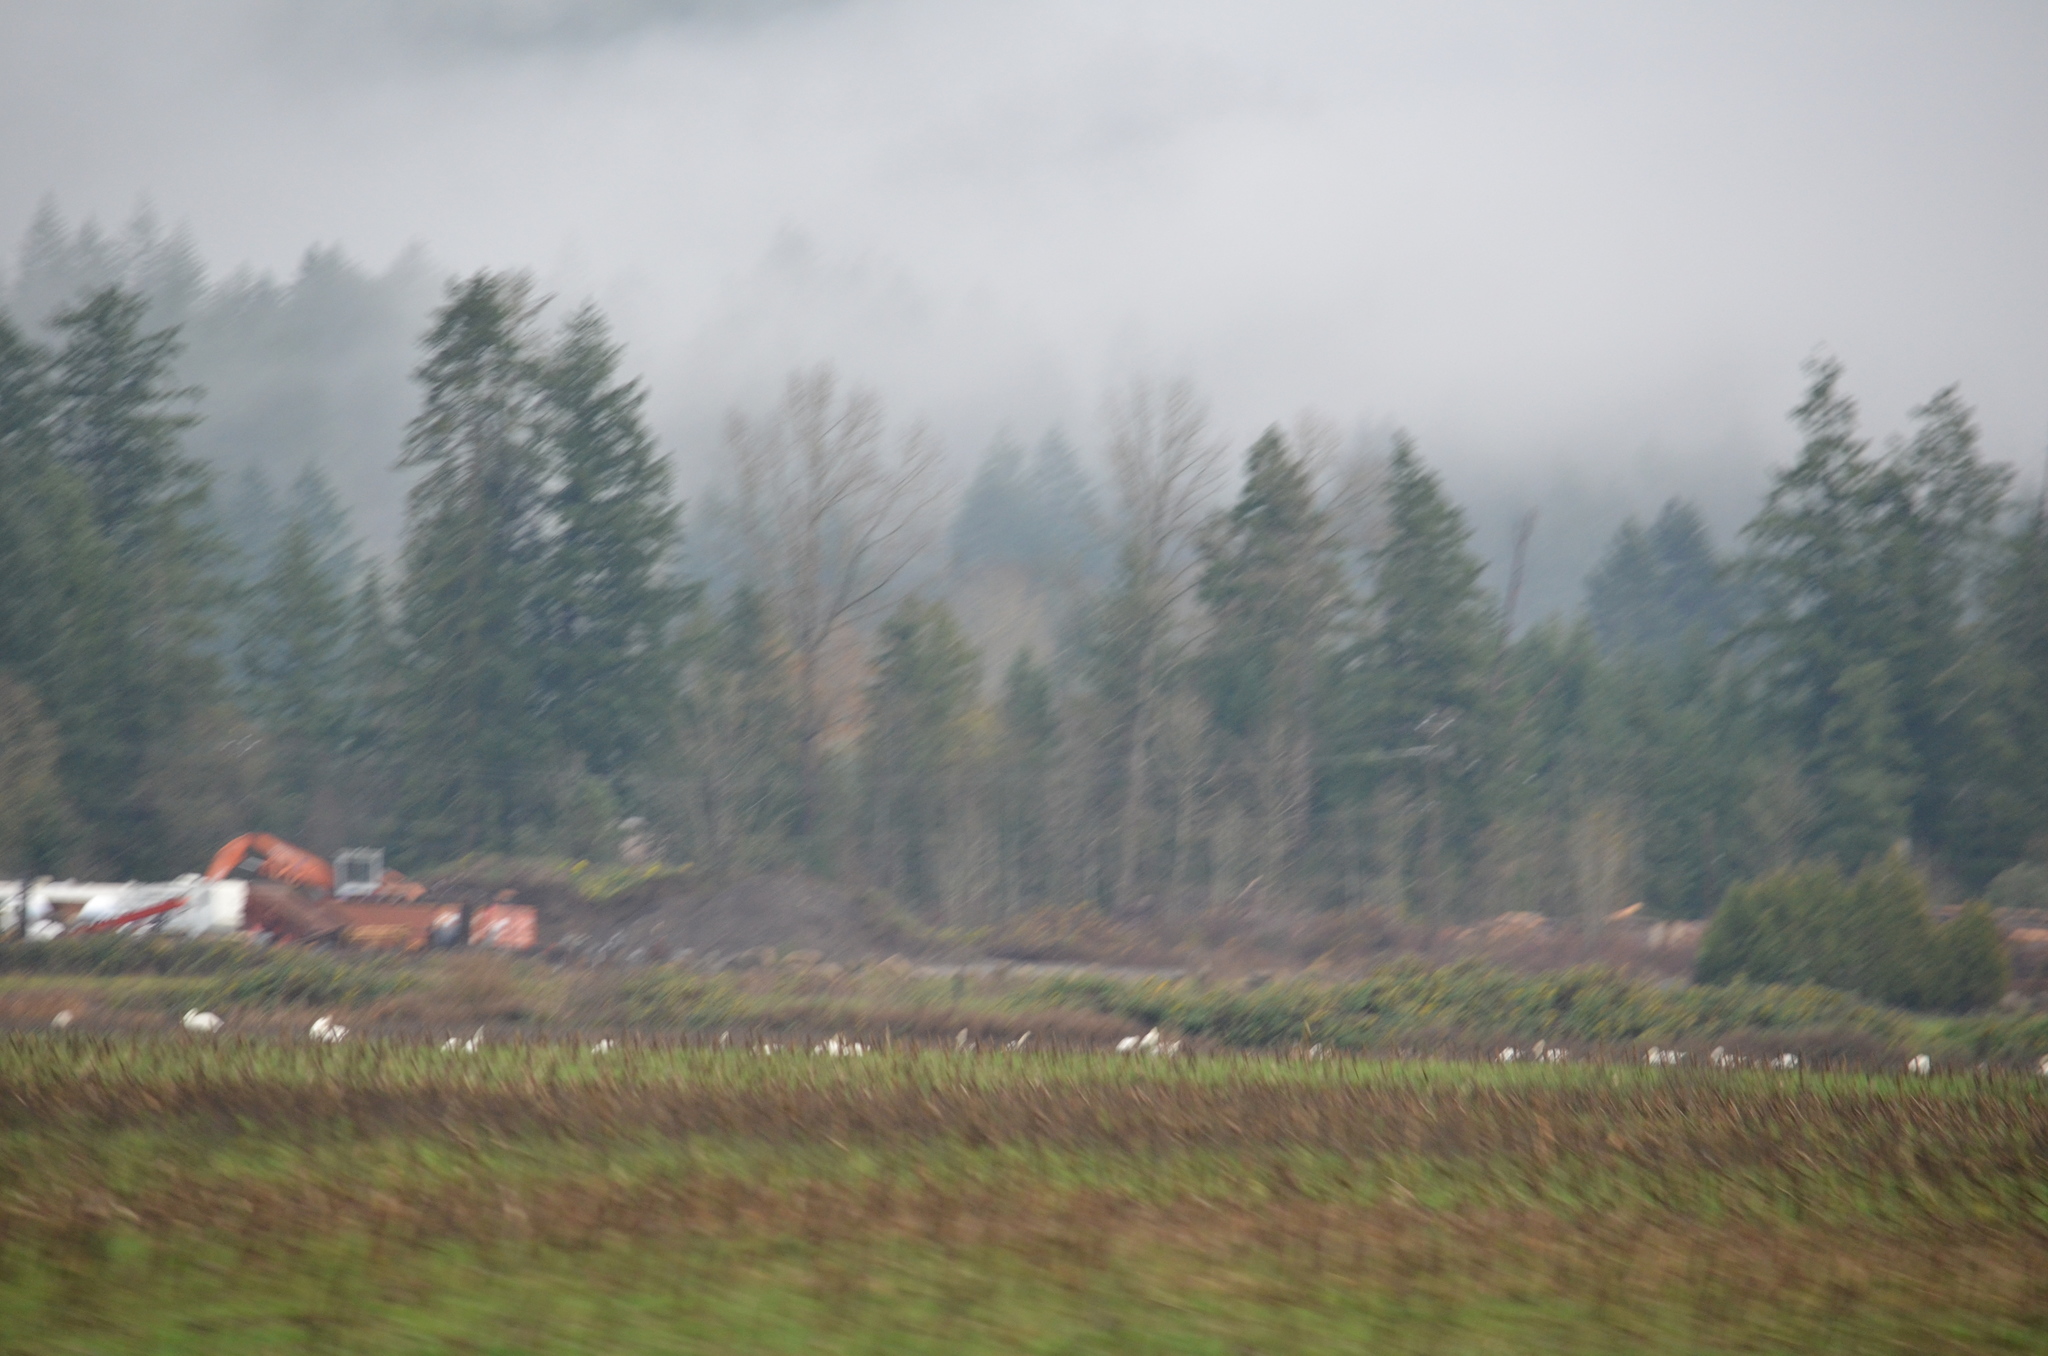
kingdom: Animalia
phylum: Chordata
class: Aves
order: Anseriformes
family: Anatidae
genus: Cygnus
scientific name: Cygnus buccinator
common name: Trumpeter swan
